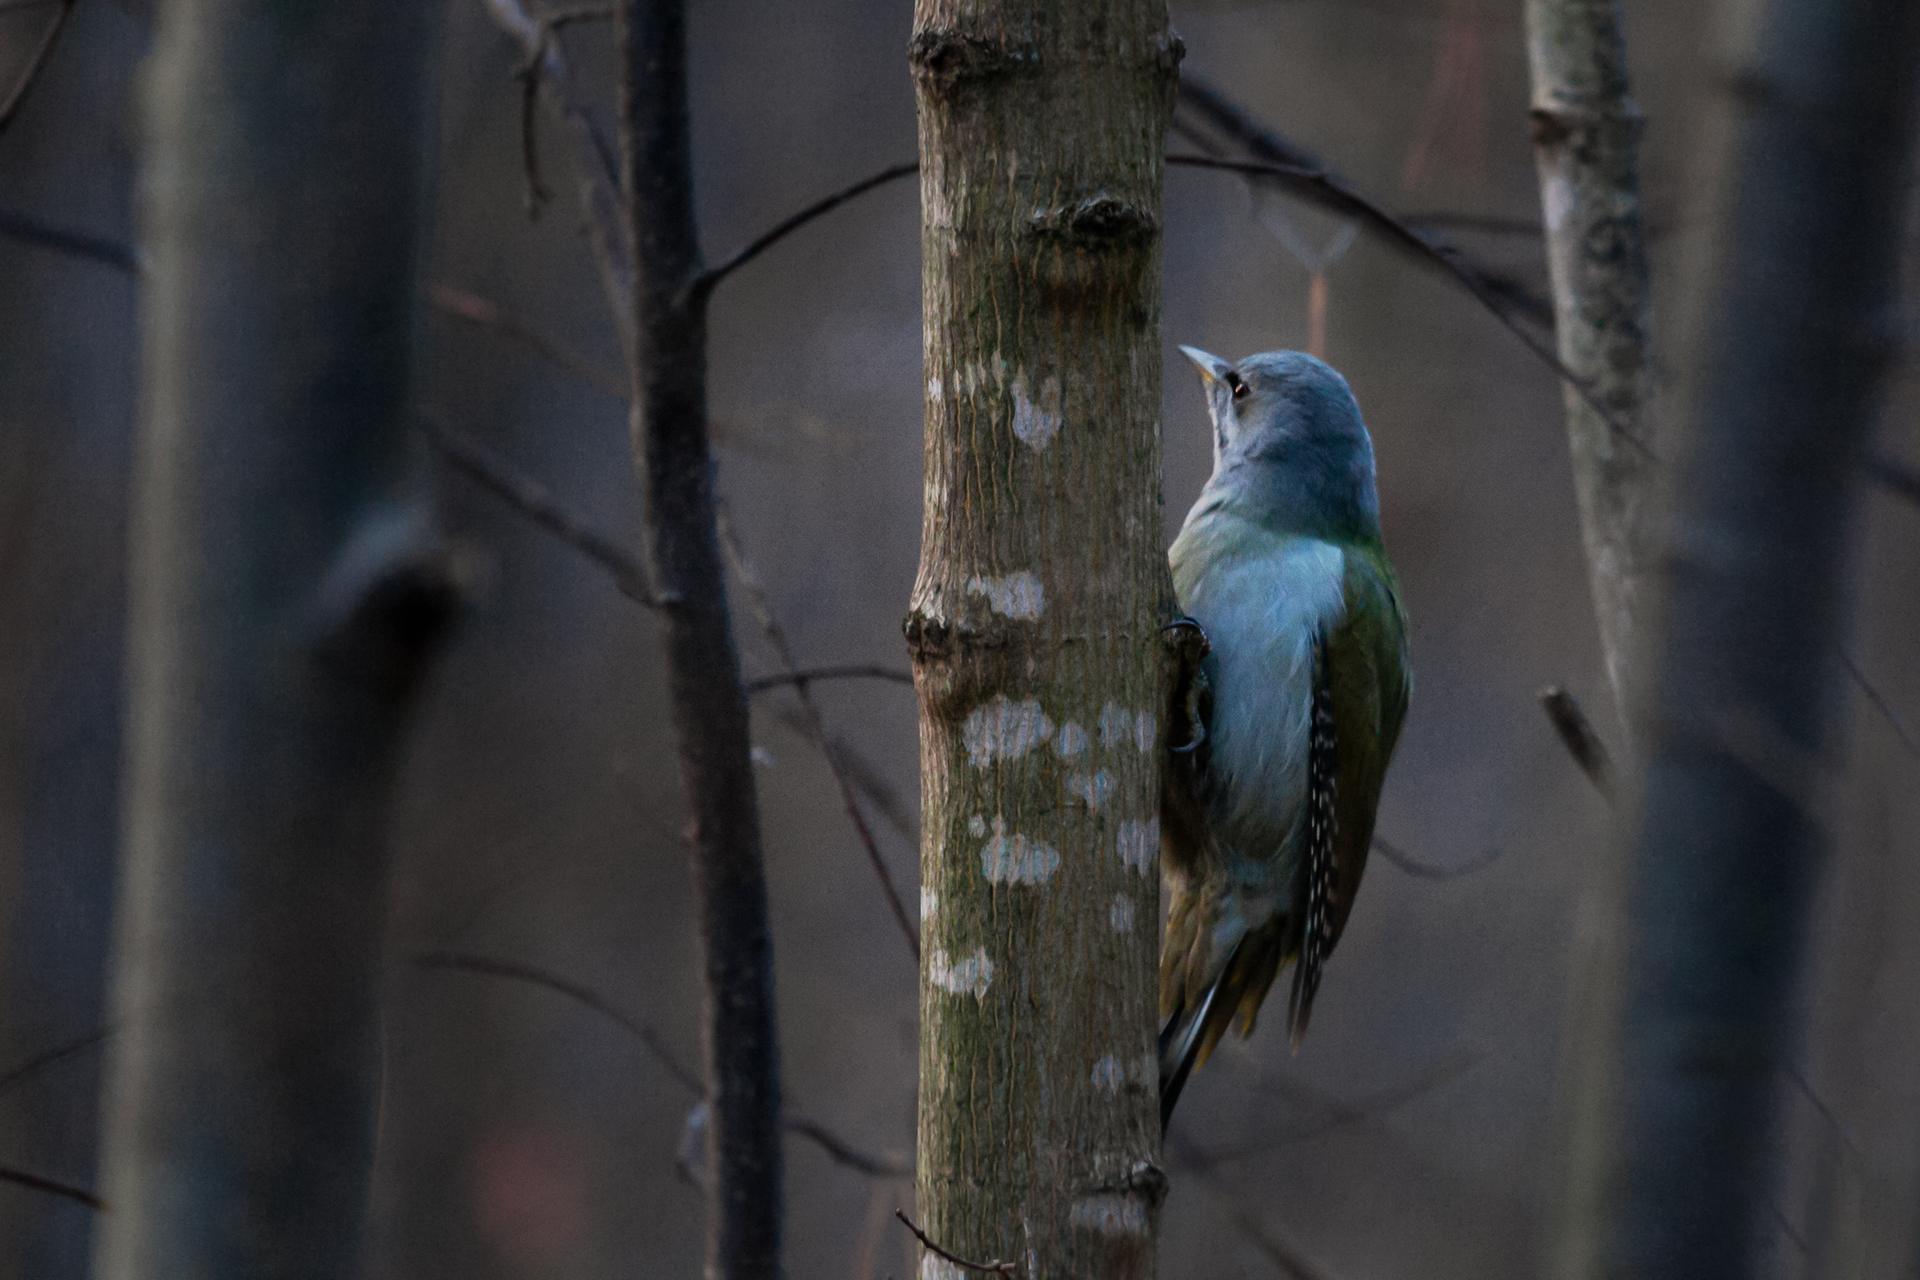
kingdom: Animalia
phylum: Chordata
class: Aves
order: Piciformes
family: Picidae
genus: Picus
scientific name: Picus canus
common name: Grey-headed woodpecker
